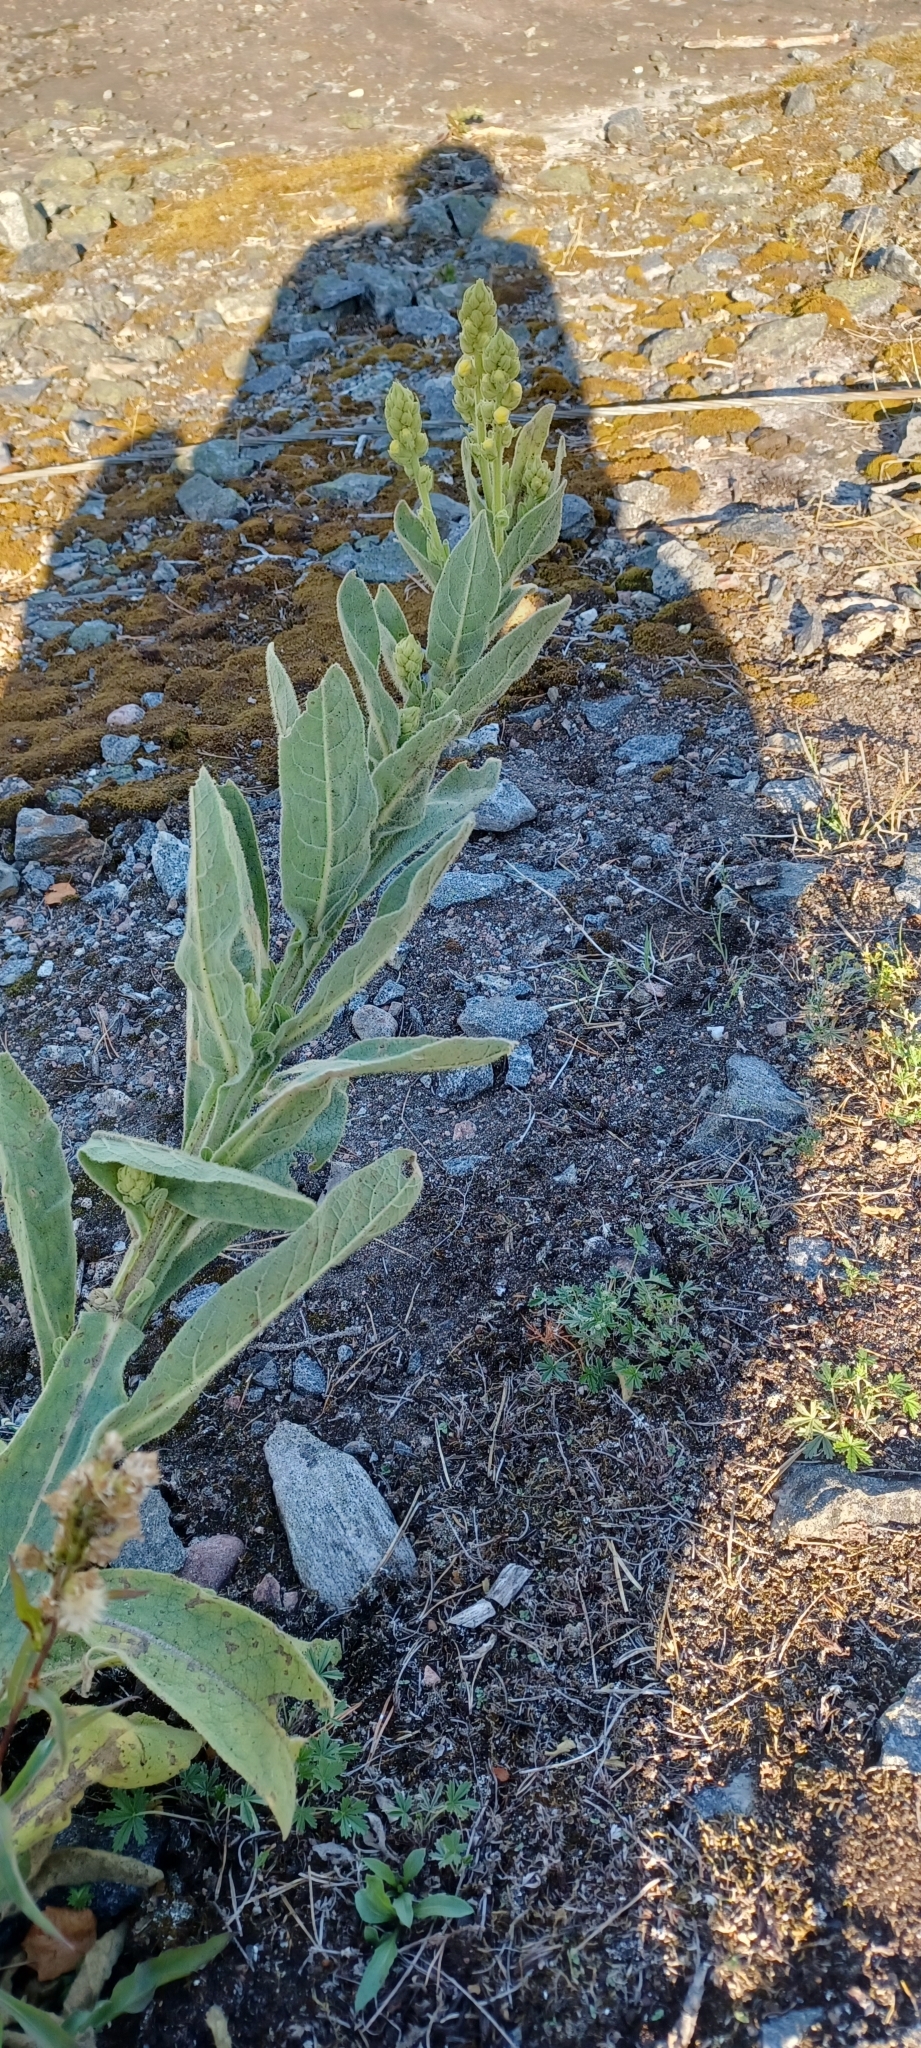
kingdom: Plantae
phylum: Tracheophyta
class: Magnoliopsida
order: Lamiales
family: Scrophulariaceae
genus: Verbascum
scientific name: Verbascum thapsus
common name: Common mullein
